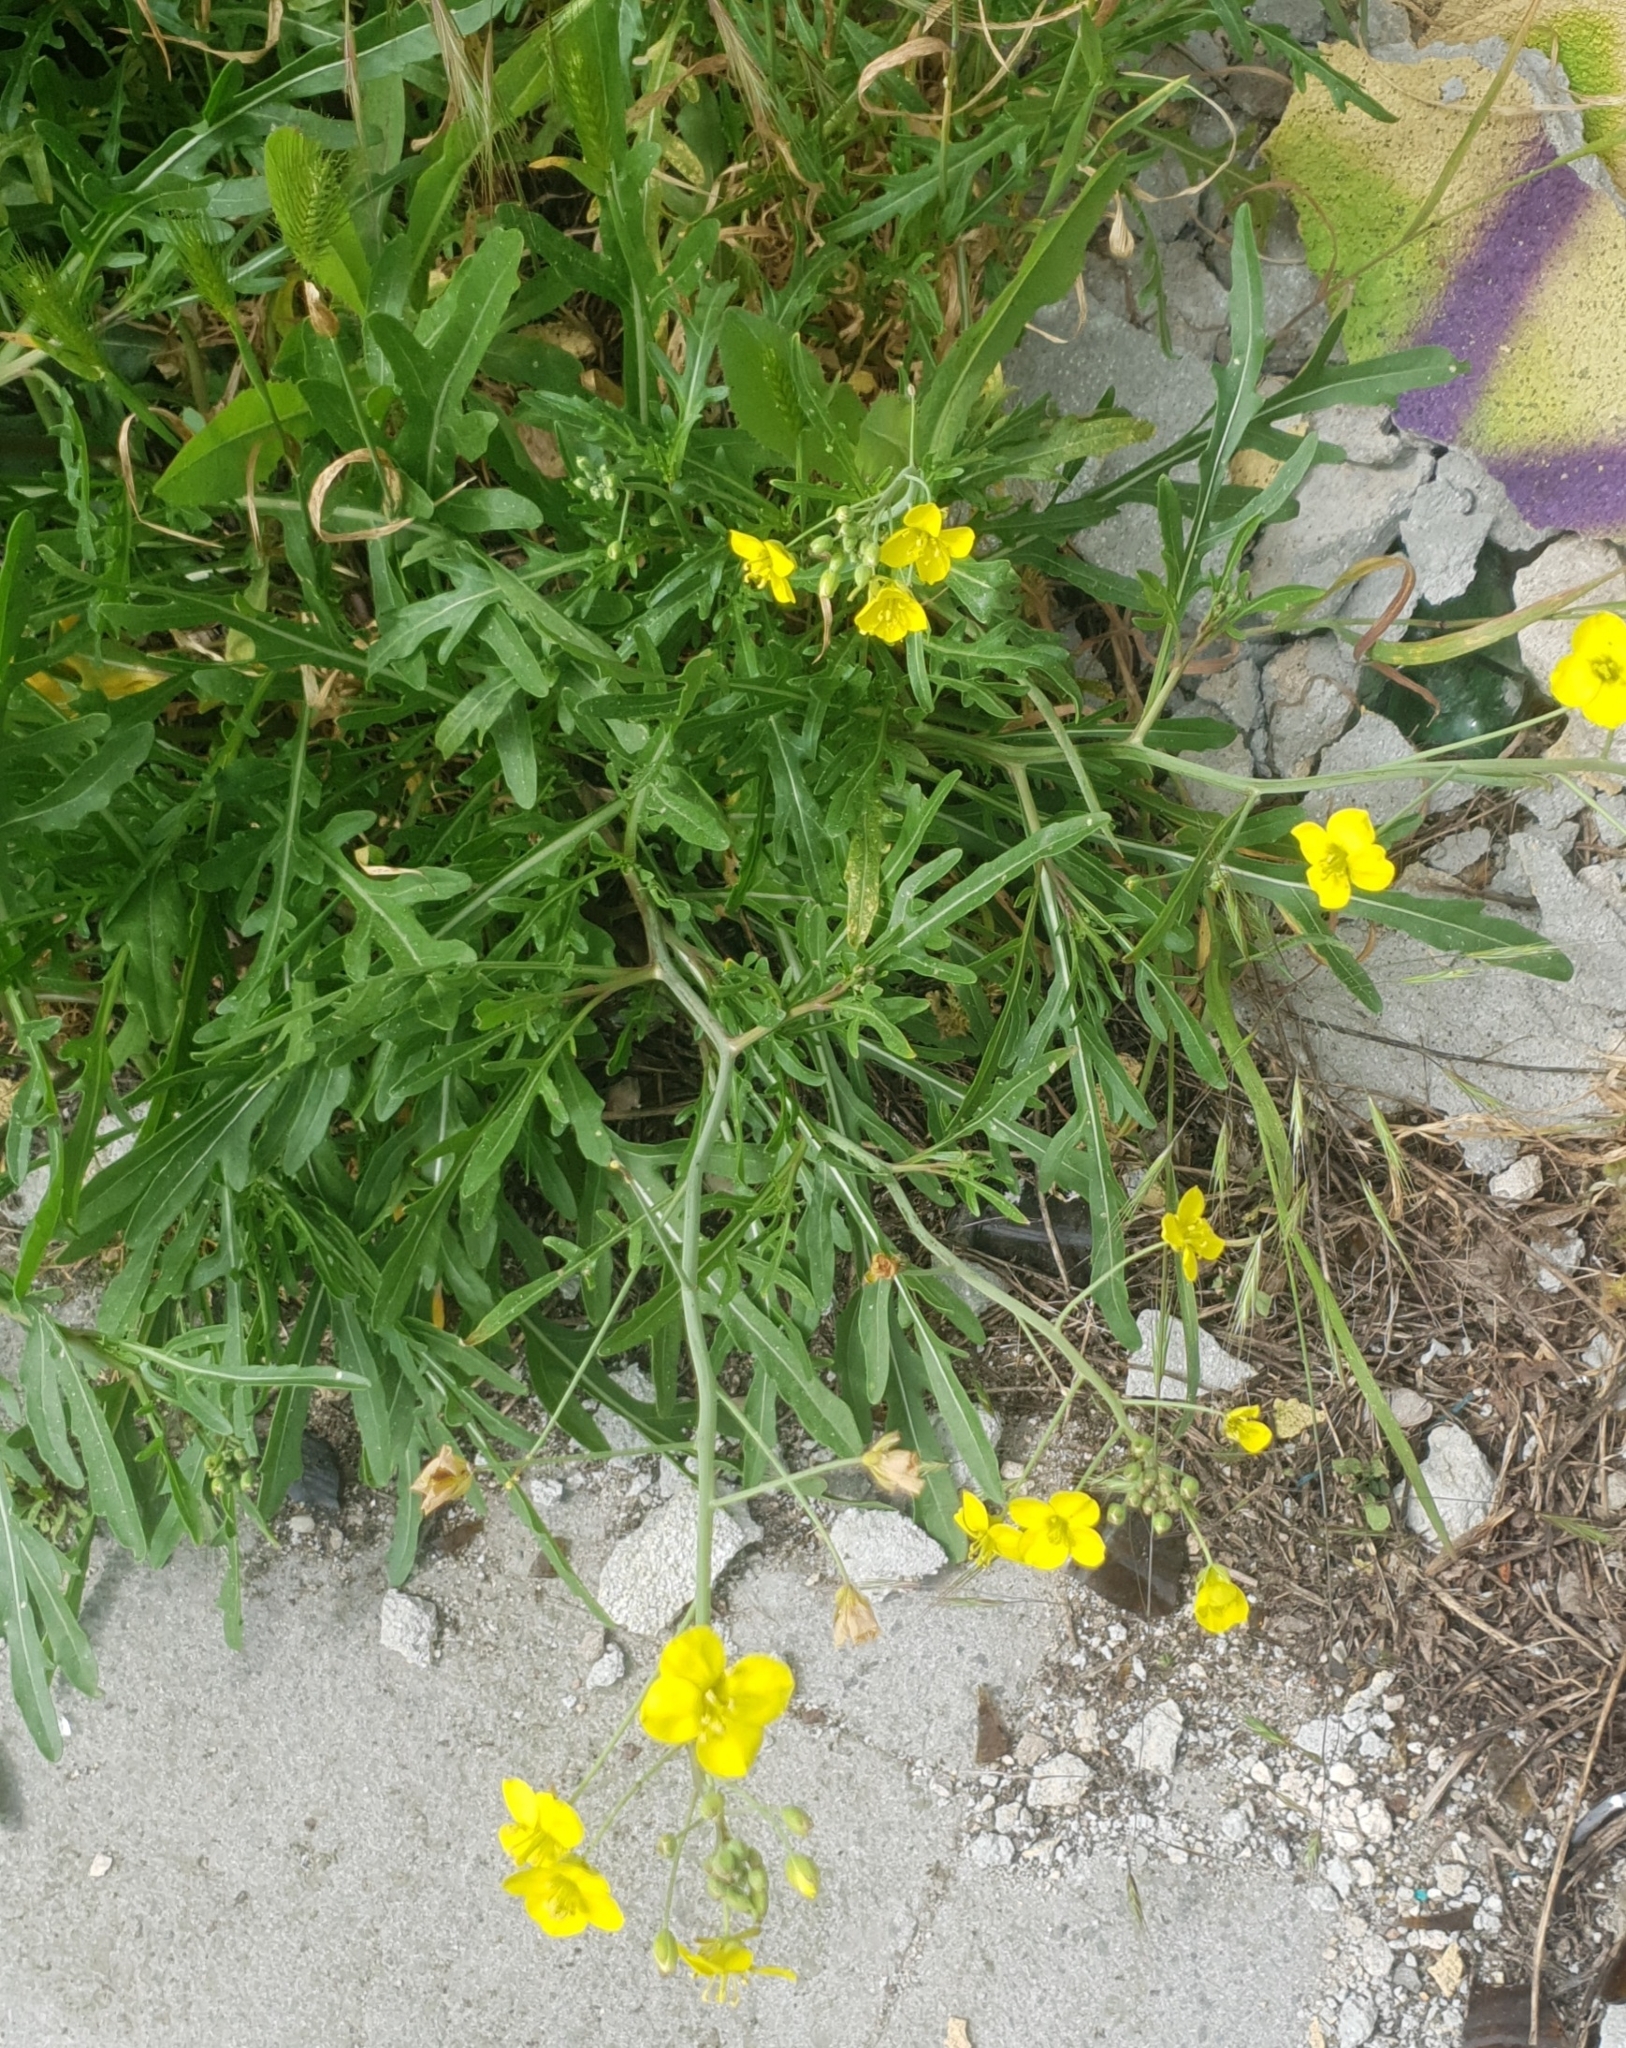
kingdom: Plantae
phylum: Tracheophyta
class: Magnoliopsida
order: Brassicales
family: Brassicaceae
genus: Diplotaxis
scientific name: Diplotaxis tenuifolia
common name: Perennial wall-rocket
